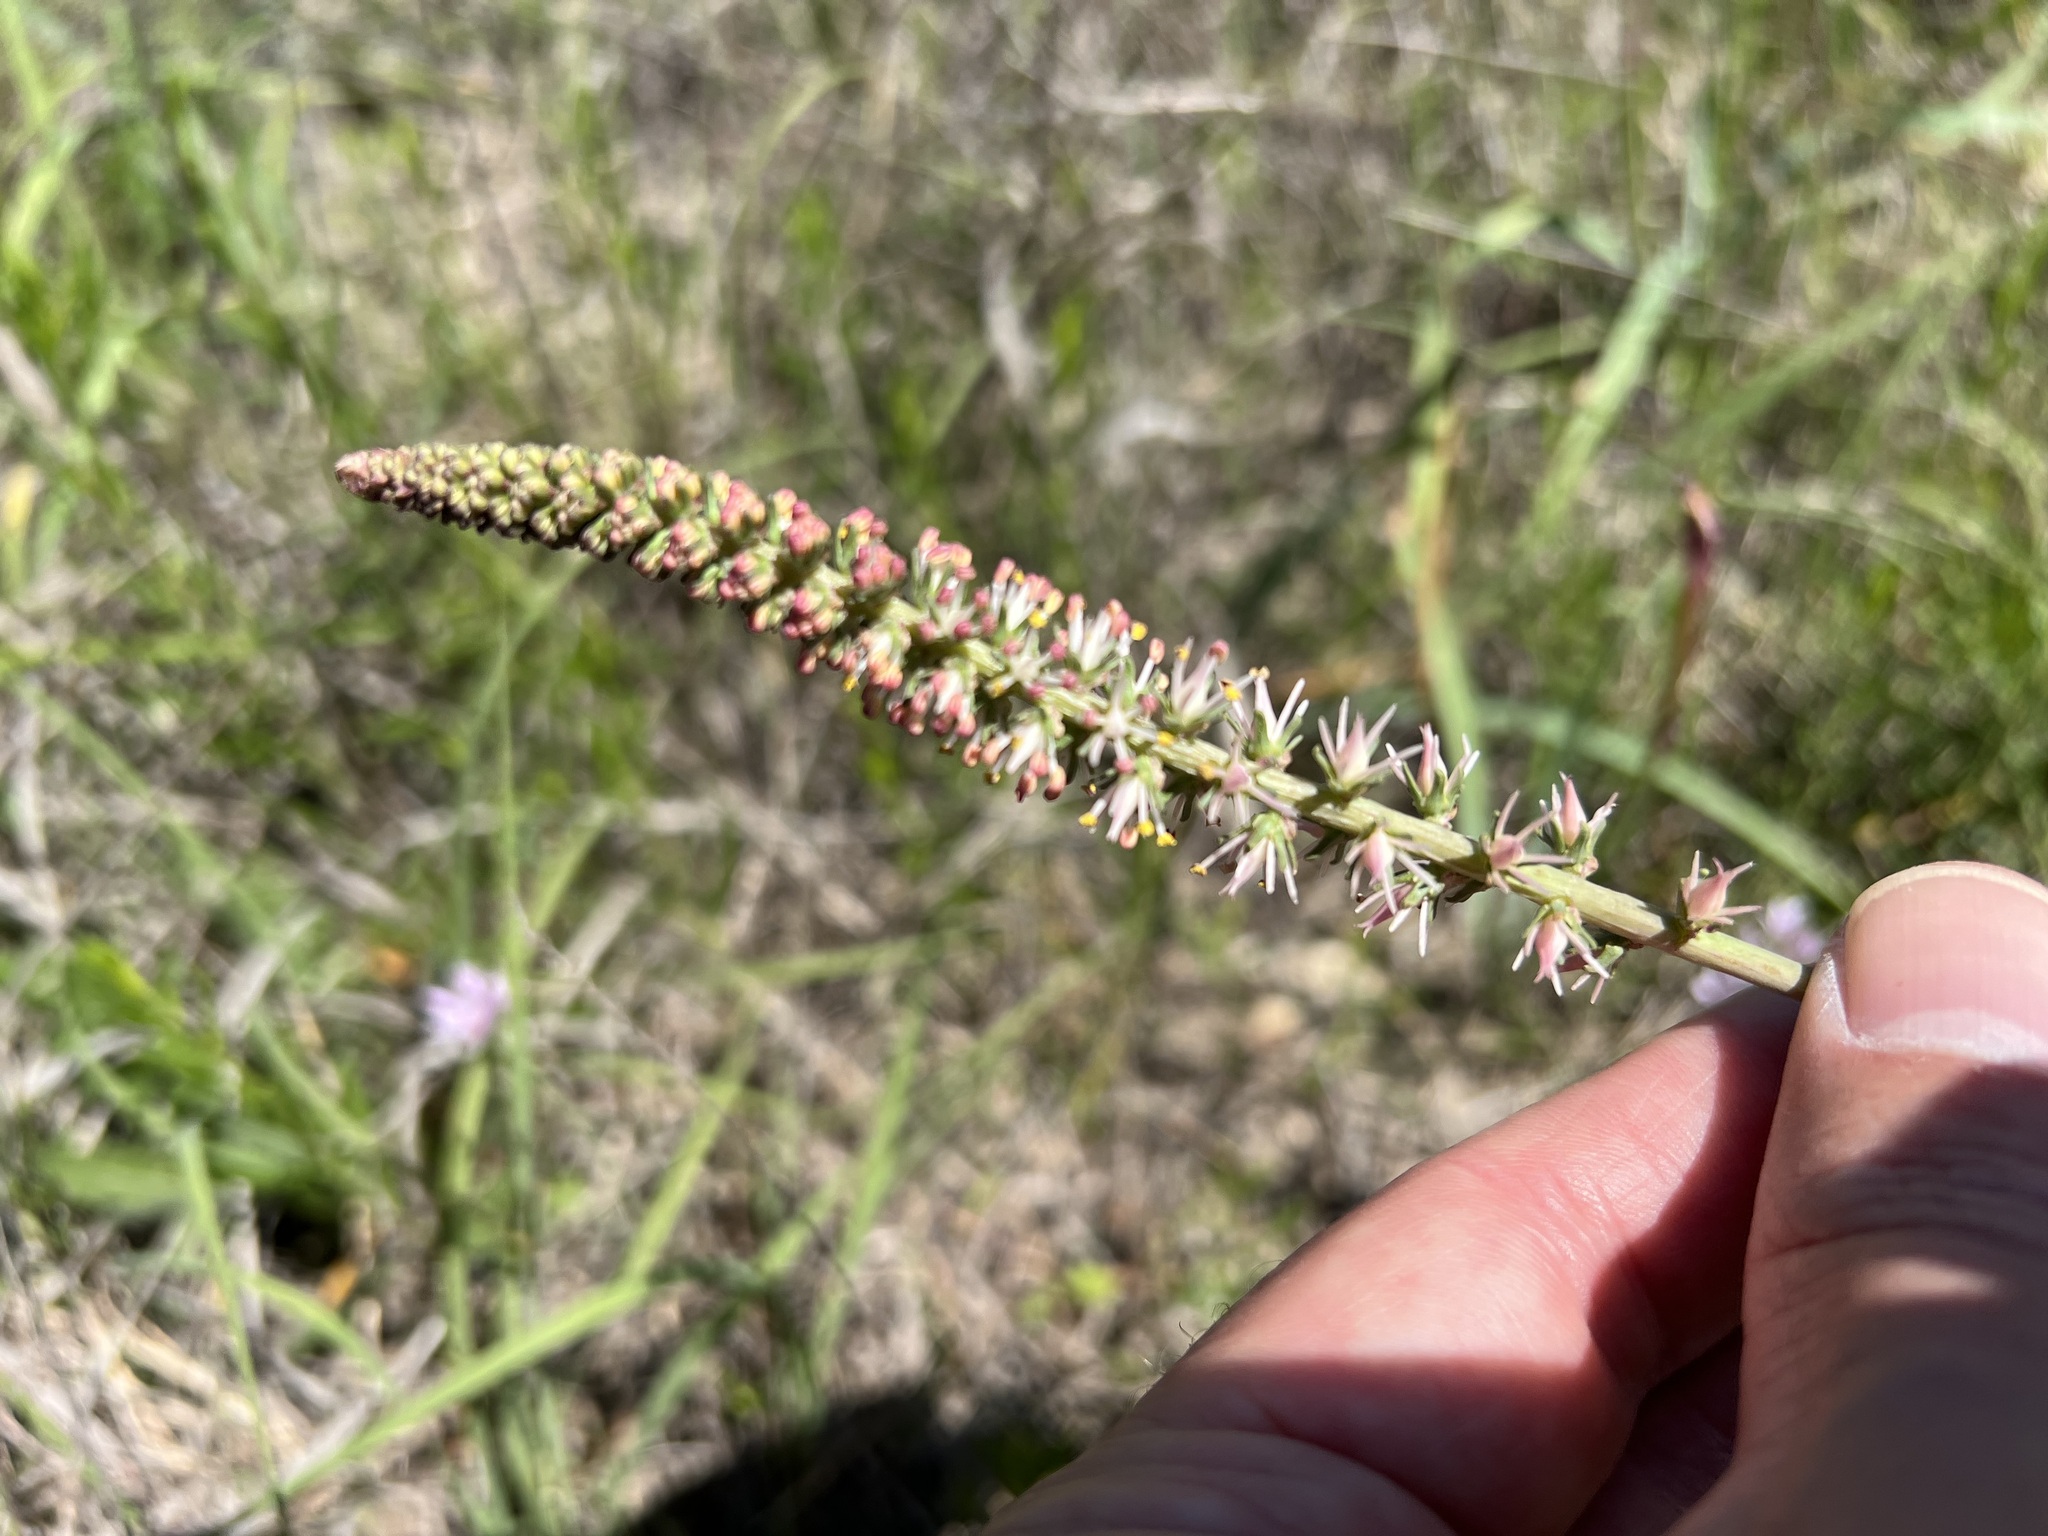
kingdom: Plantae
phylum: Tracheophyta
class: Liliopsida
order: Liliales
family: Melanthiaceae
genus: Schoenocaulon
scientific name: Schoenocaulon texanum
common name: Texas feather-shank
